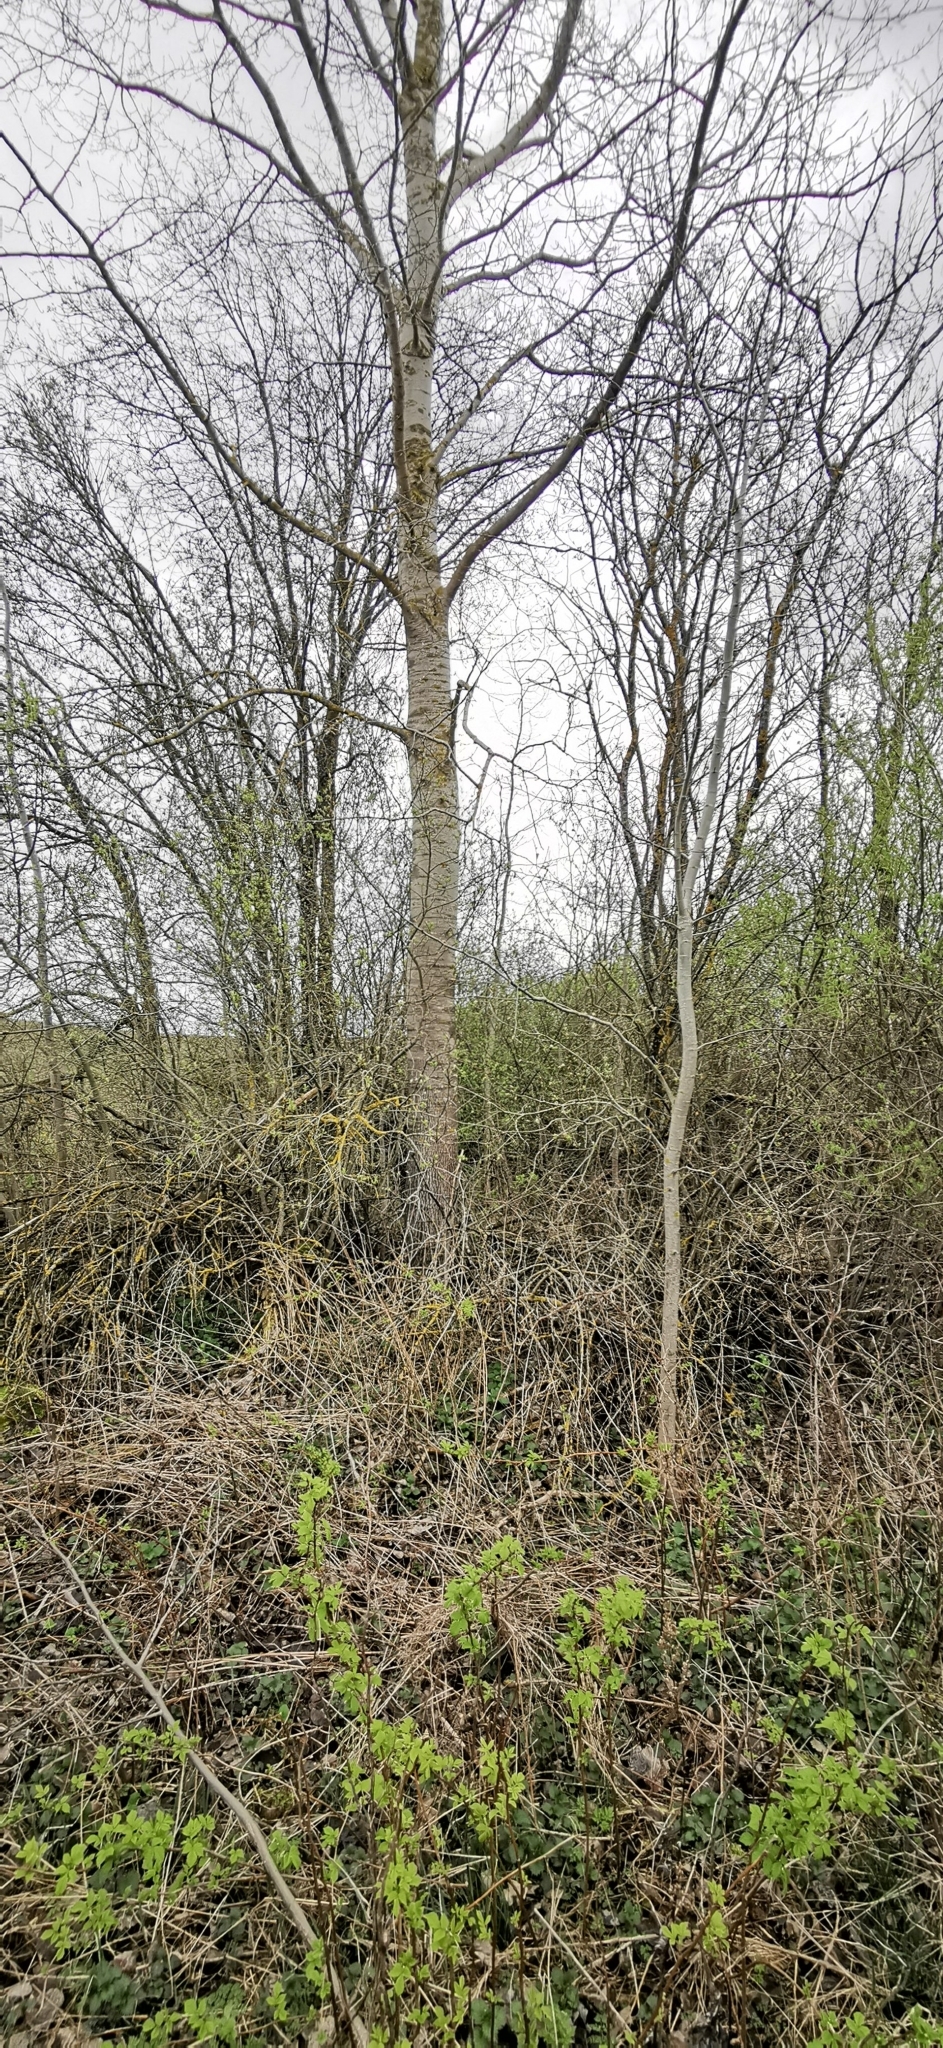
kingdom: Plantae
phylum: Tracheophyta
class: Magnoliopsida
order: Malpighiales
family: Salicaceae
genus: Populus
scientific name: Populus tremula
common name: European aspen
